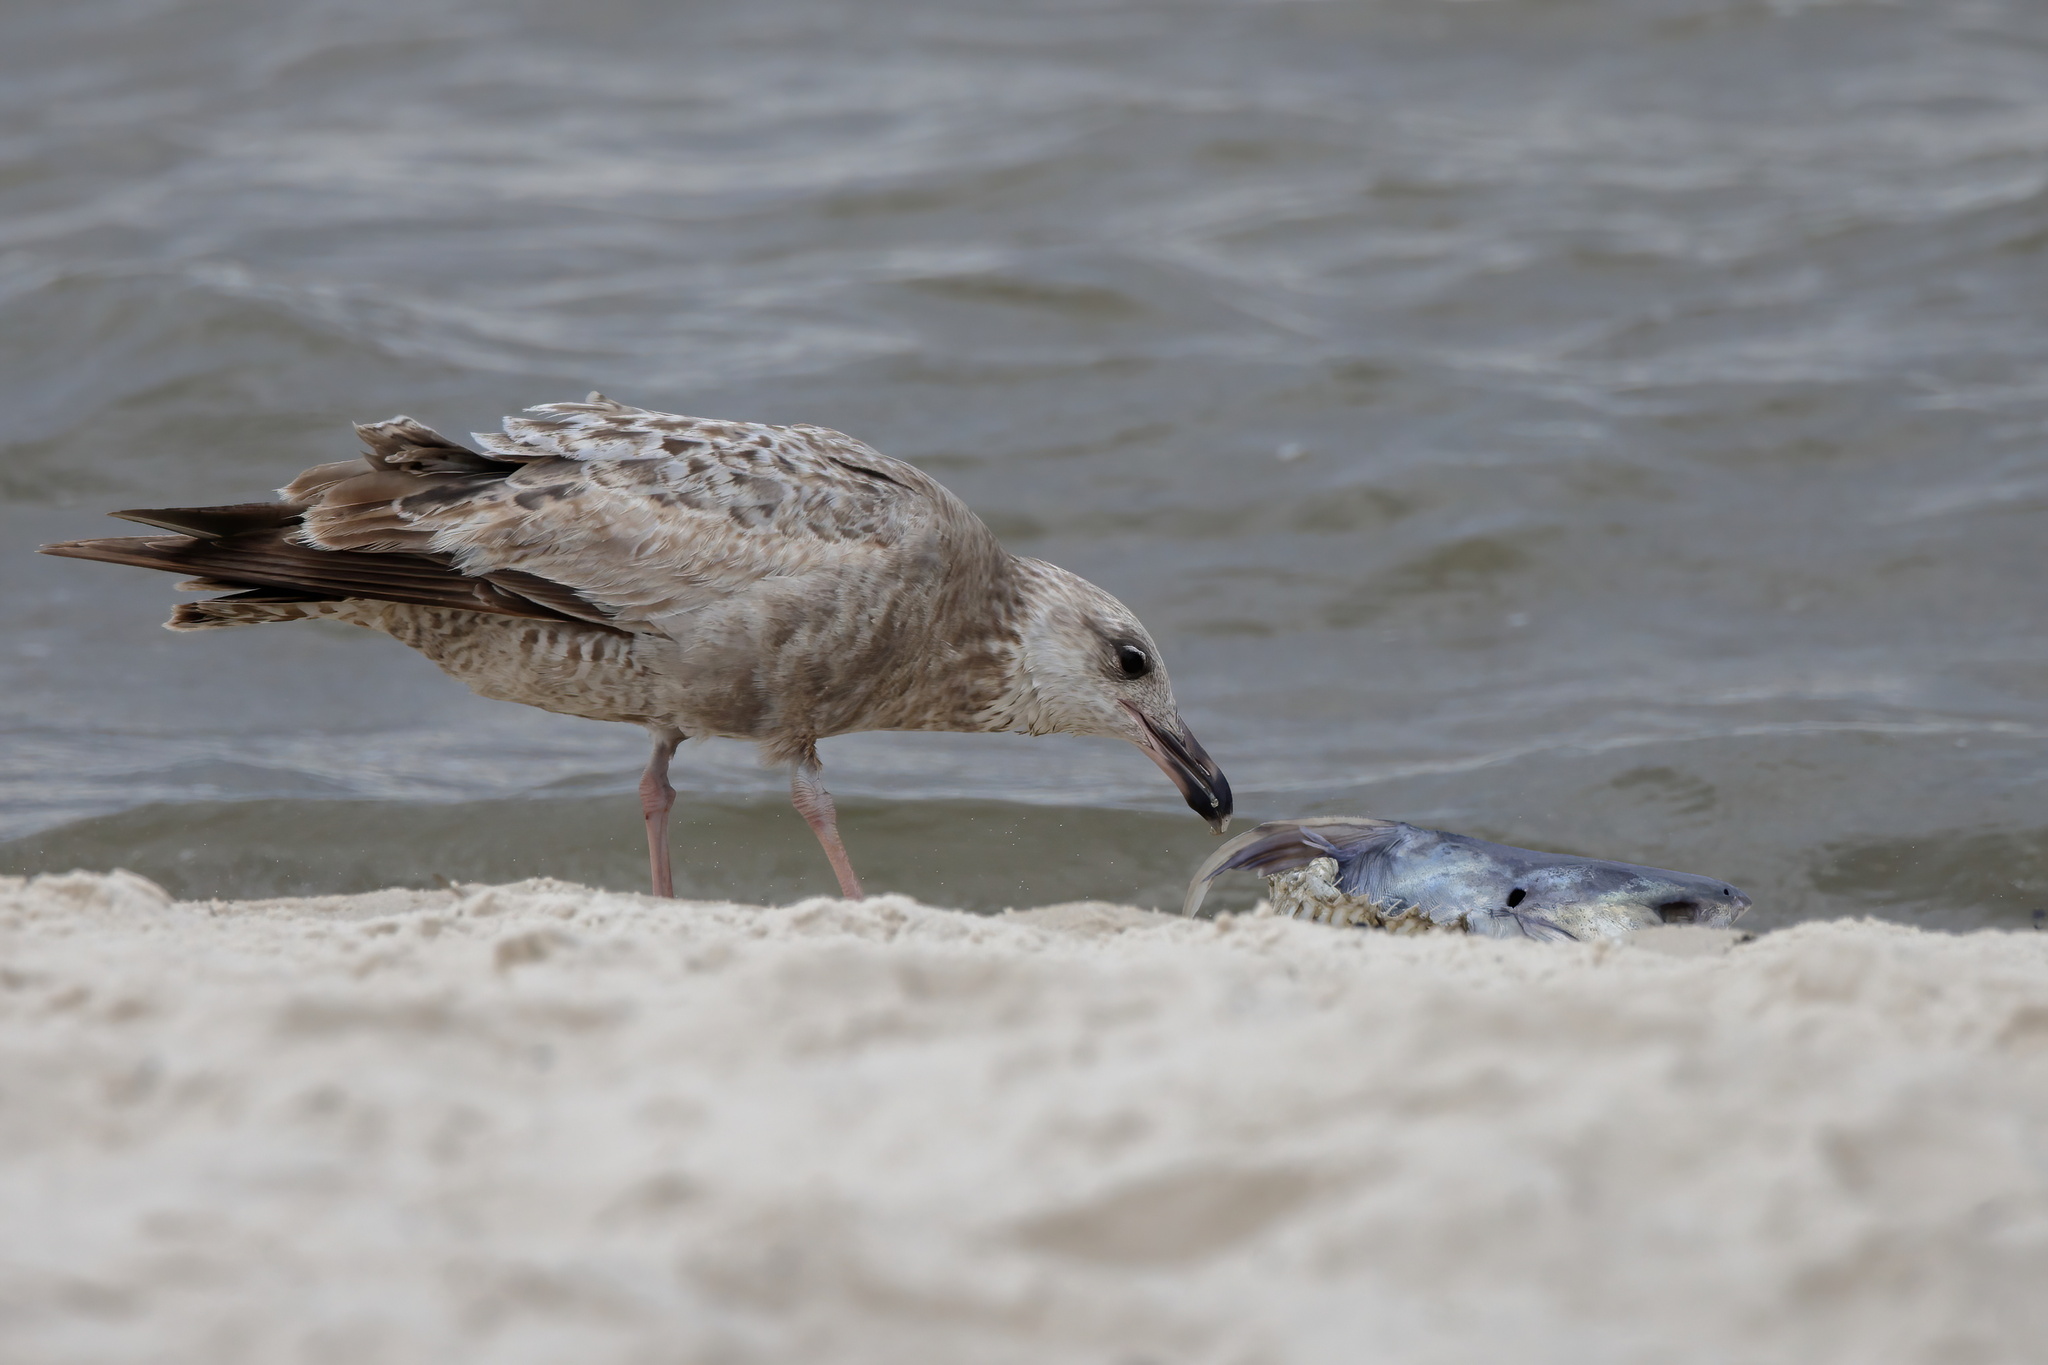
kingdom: Animalia
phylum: Chordata
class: Aves
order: Charadriiformes
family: Laridae
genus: Larus
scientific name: Larus argentatus
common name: Herring gull
